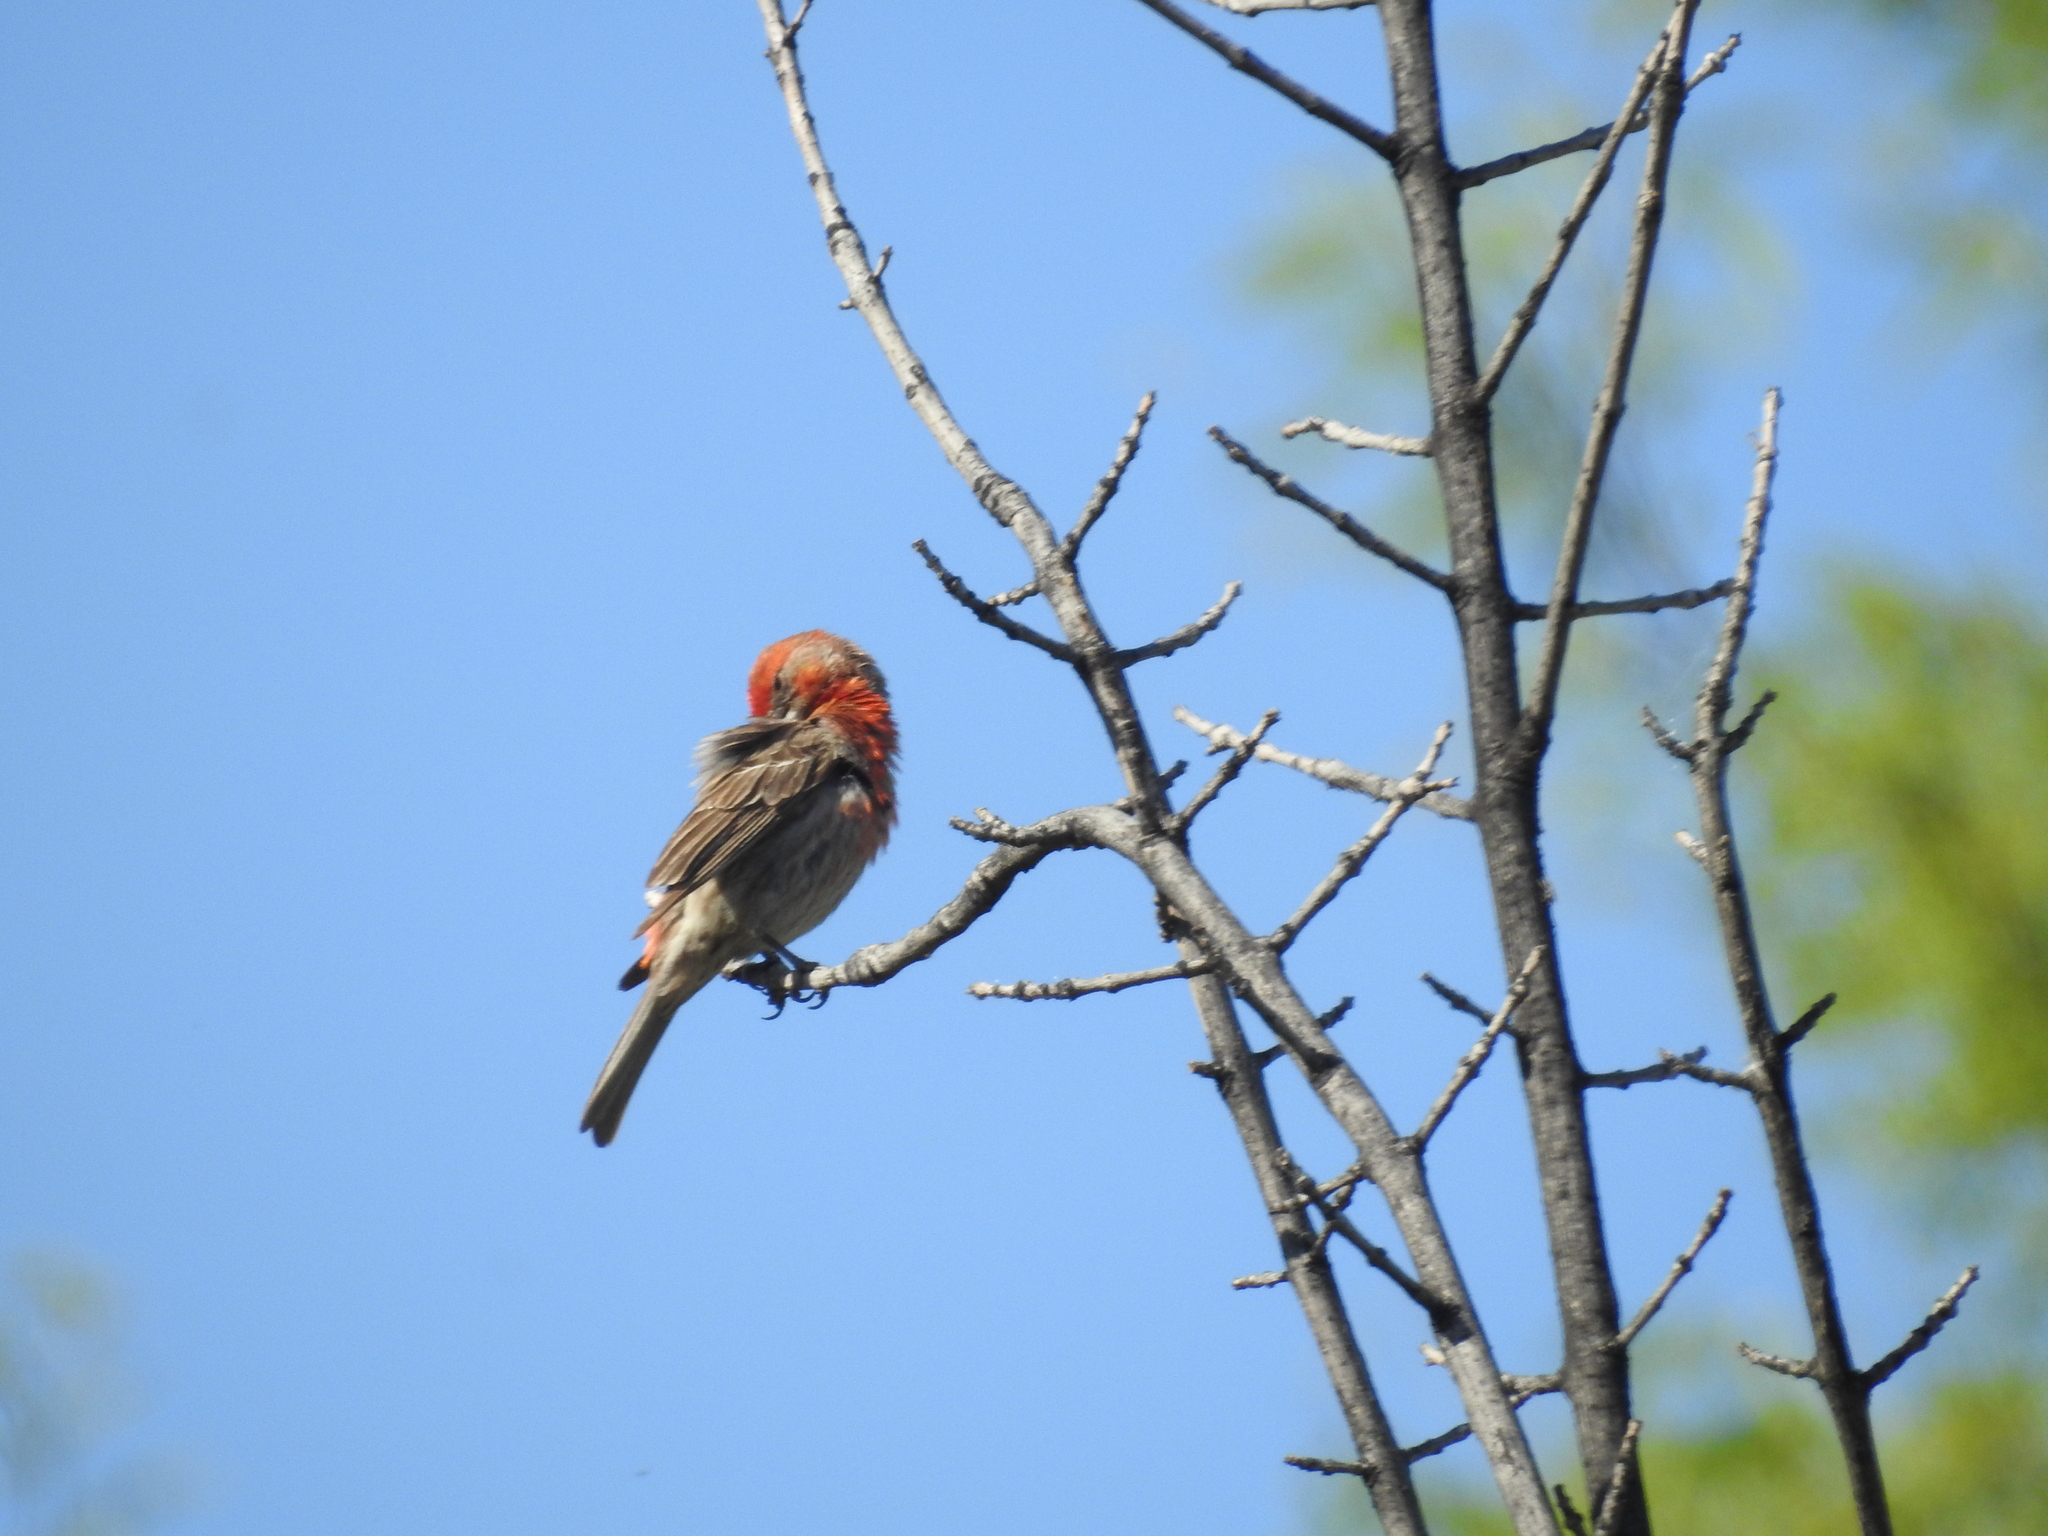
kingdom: Animalia
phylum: Chordata
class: Aves
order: Passeriformes
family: Fringillidae
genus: Haemorhous
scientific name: Haemorhous mexicanus
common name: House finch
